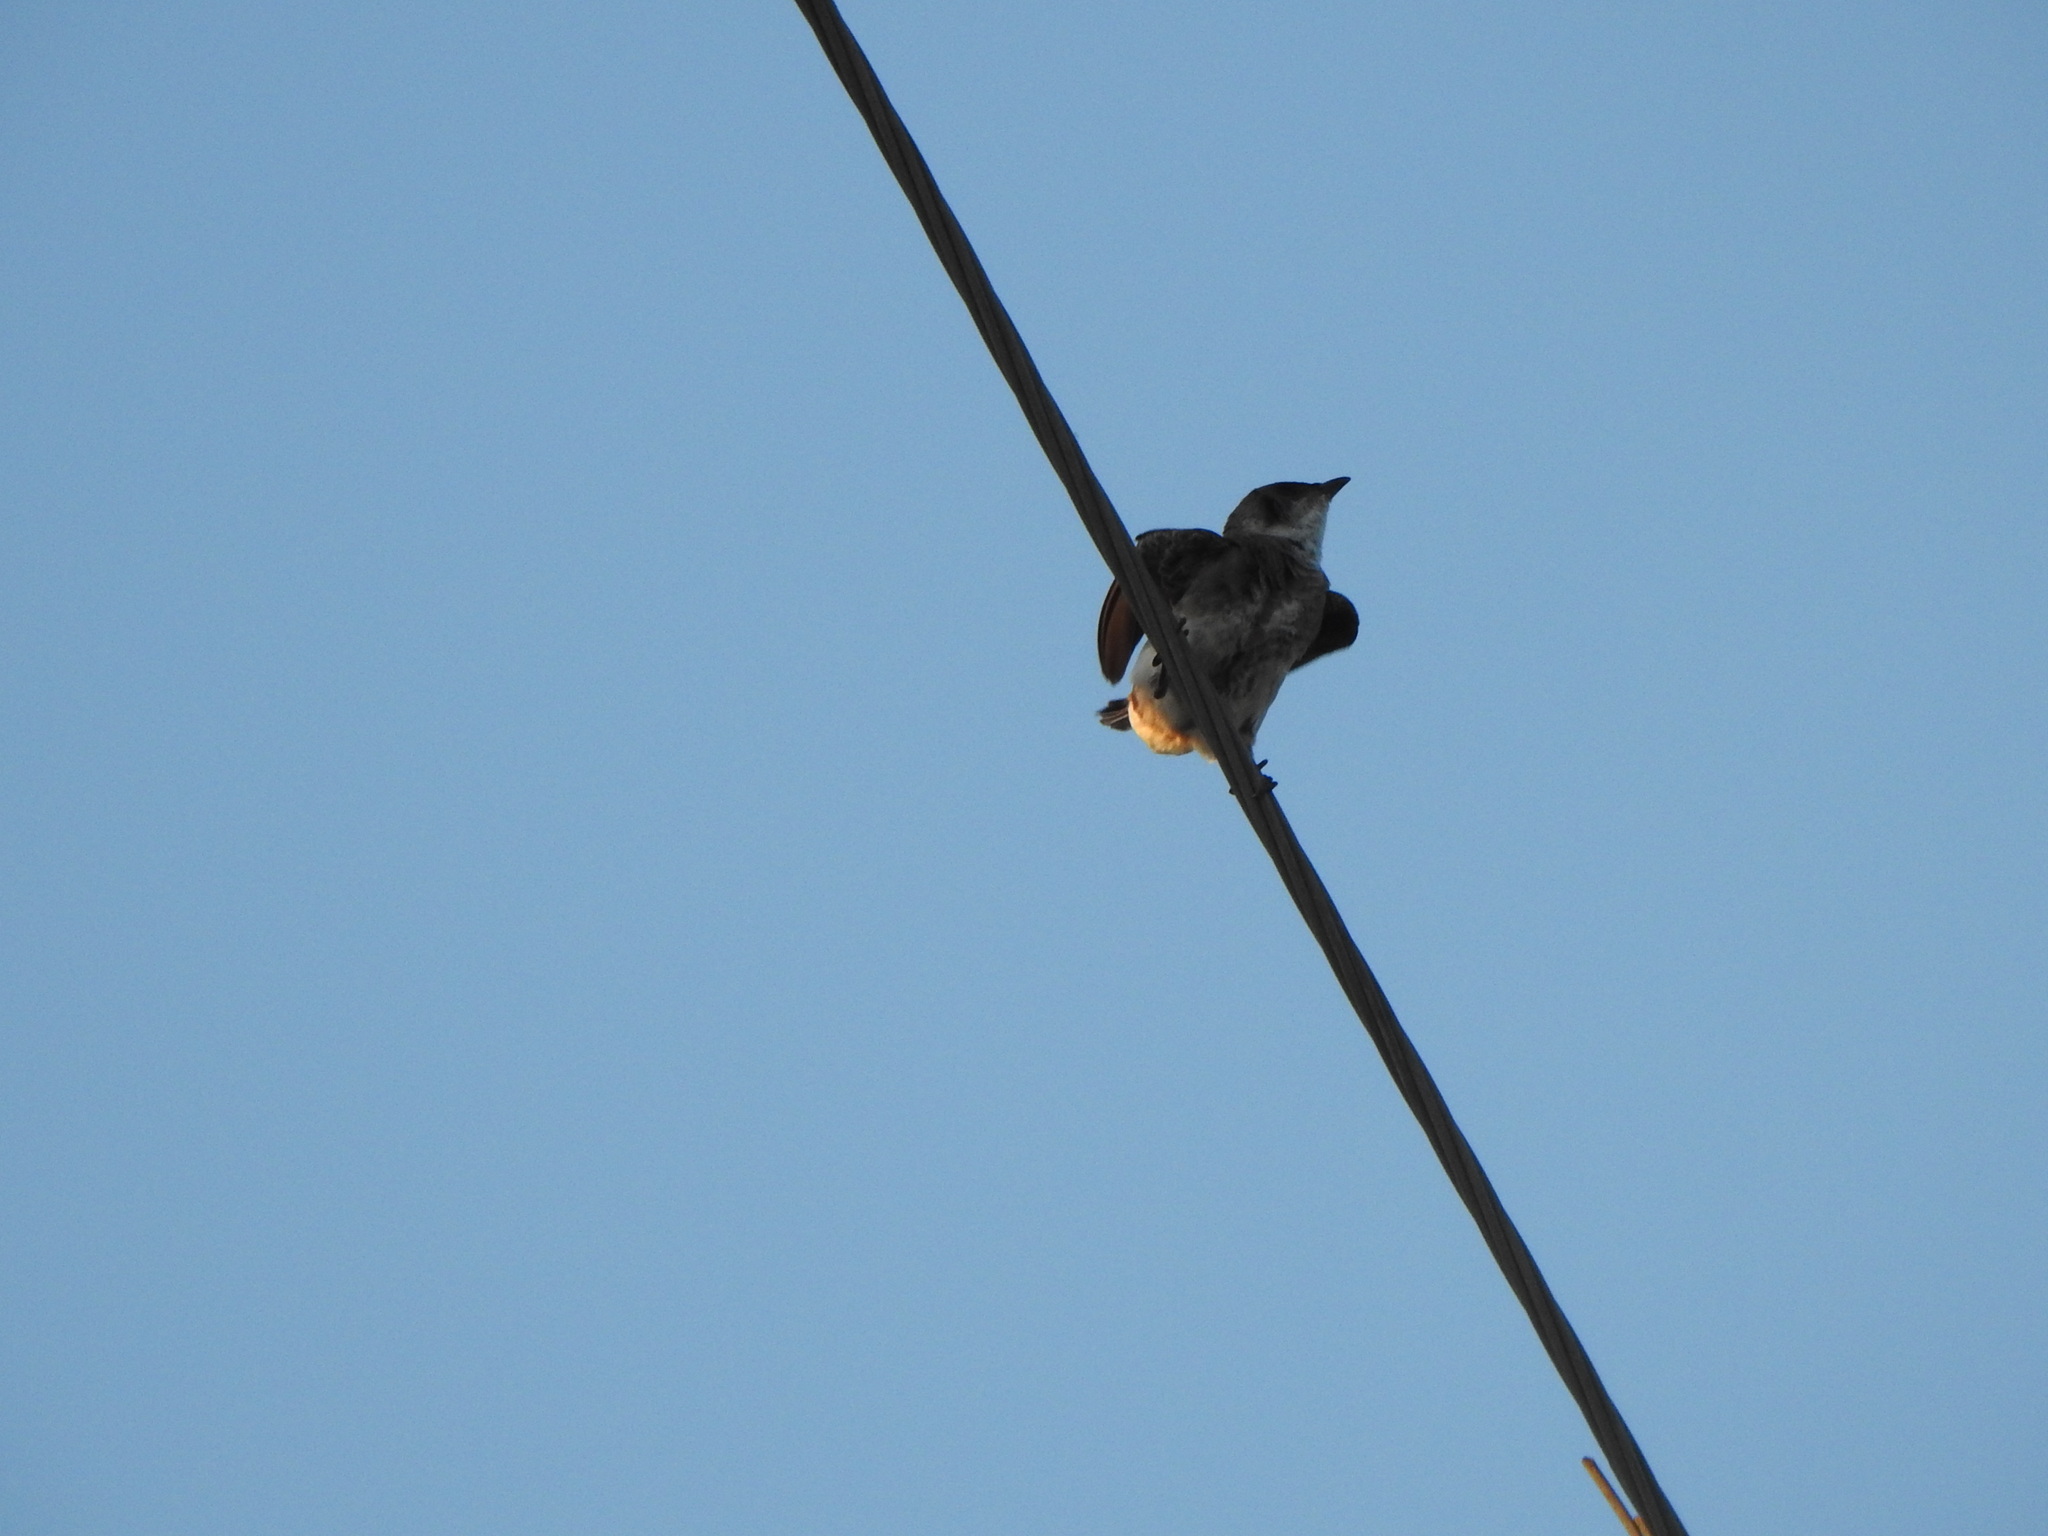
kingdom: Animalia
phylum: Chordata
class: Aves
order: Passeriformes
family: Hirundinidae
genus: Progne
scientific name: Progne tapera
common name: Brown-chested martin
